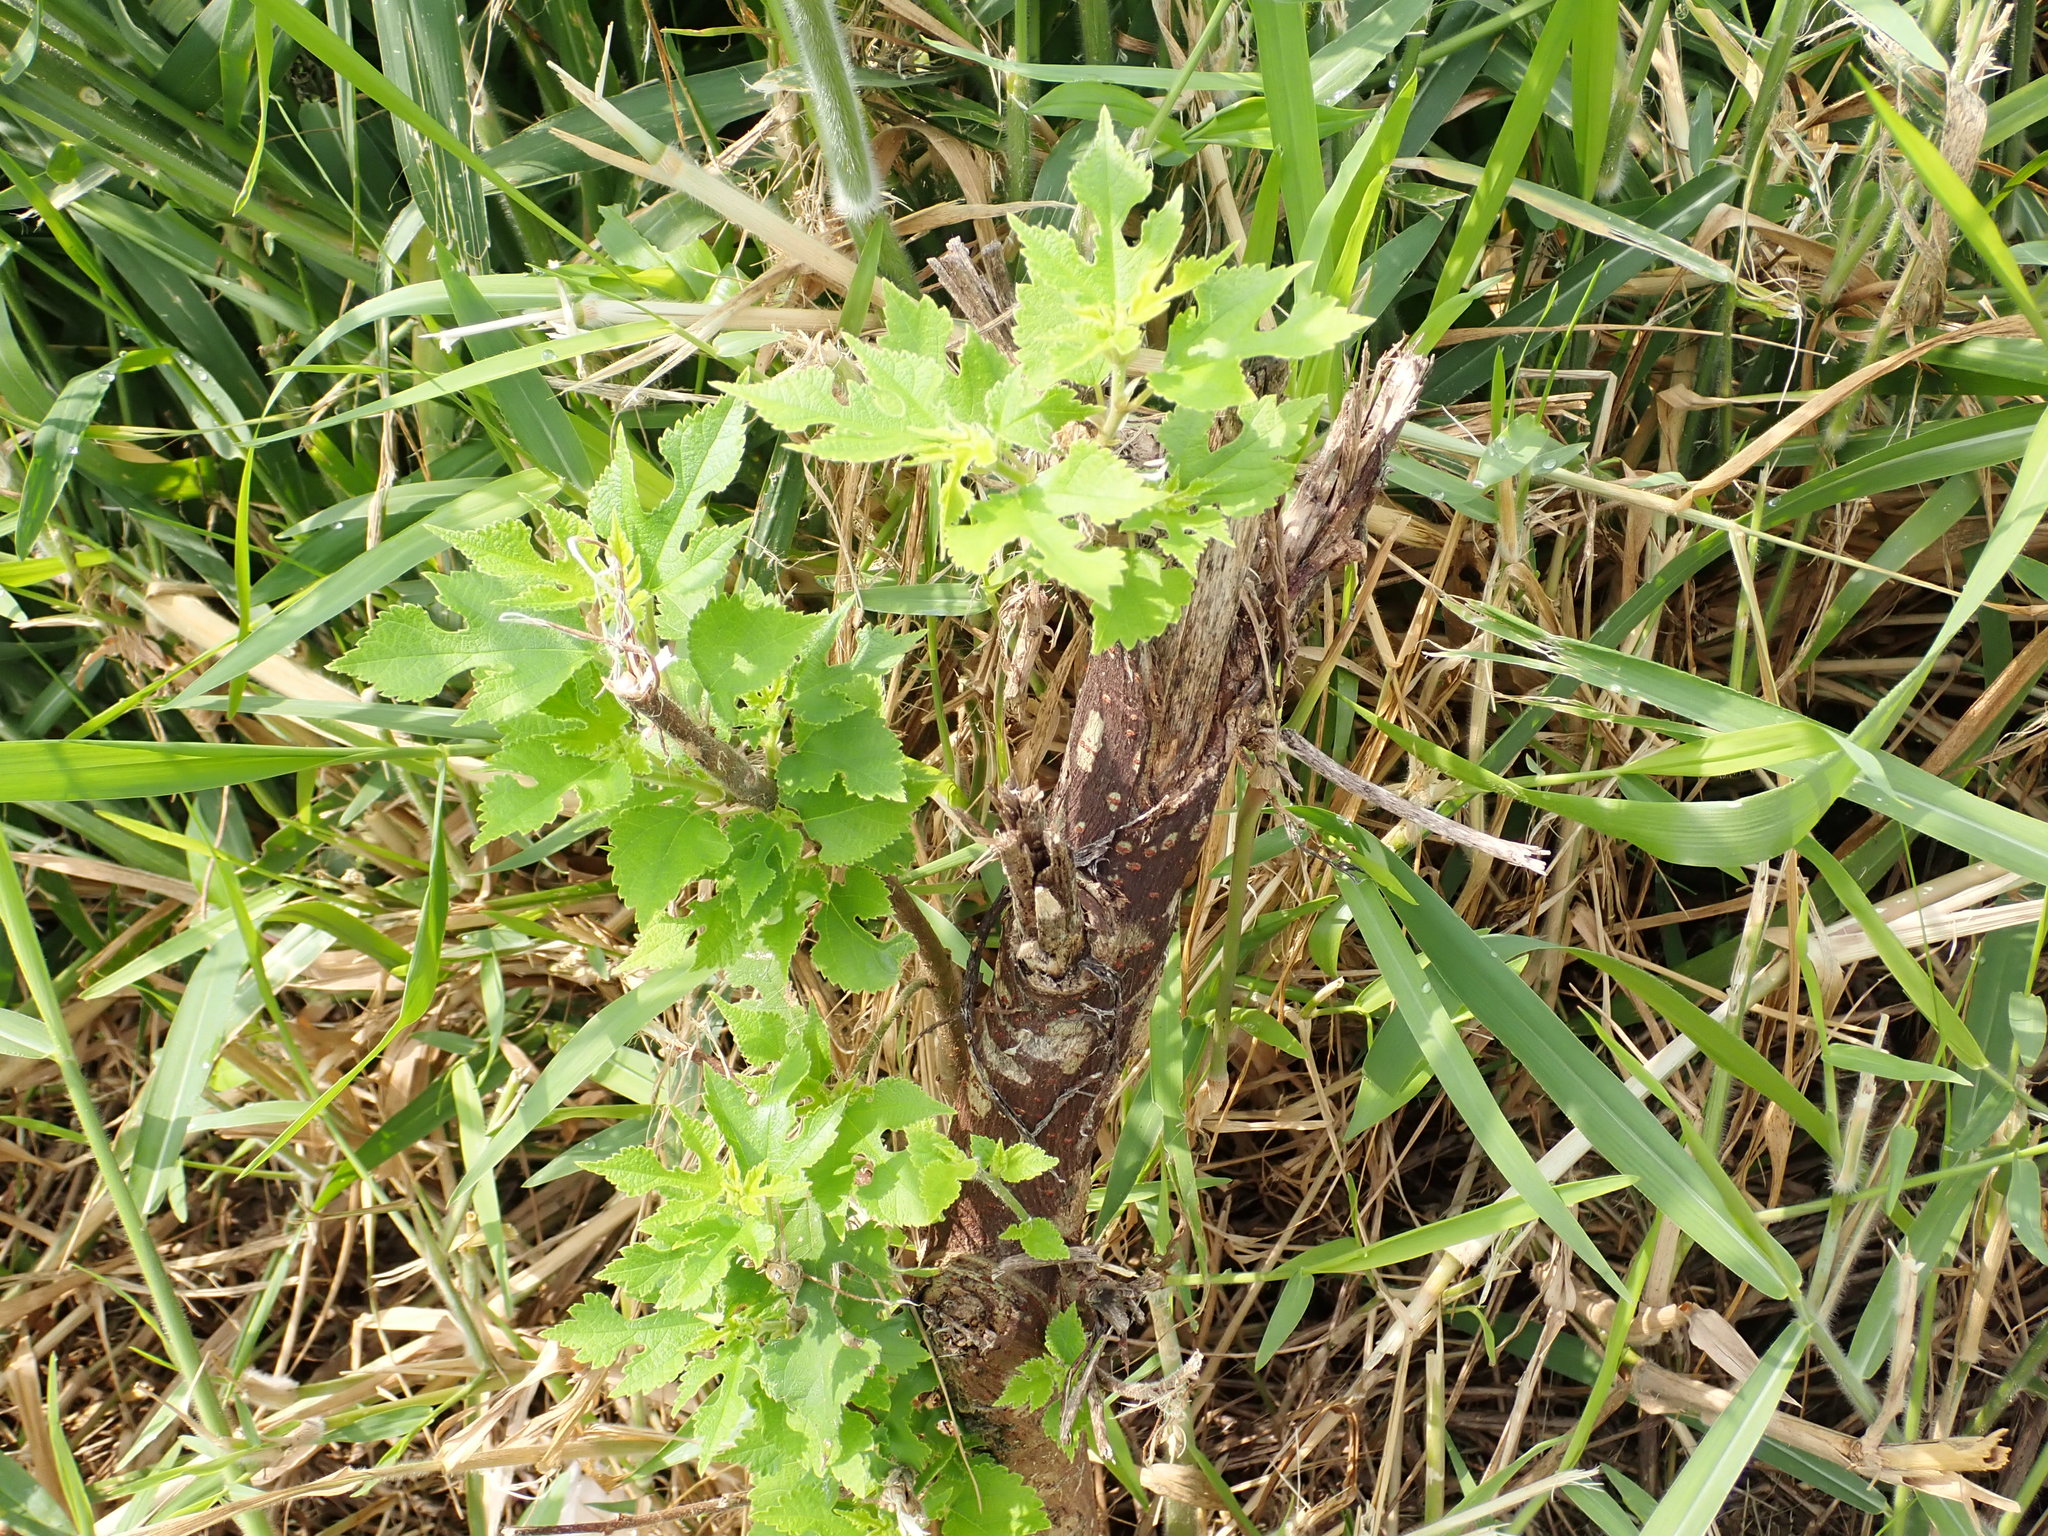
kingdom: Plantae
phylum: Tracheophyta
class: Magnoliopsida
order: Rosales
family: Moraceae
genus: Broussonetia
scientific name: Broussonetia papyrifera
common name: Paper mulberry
